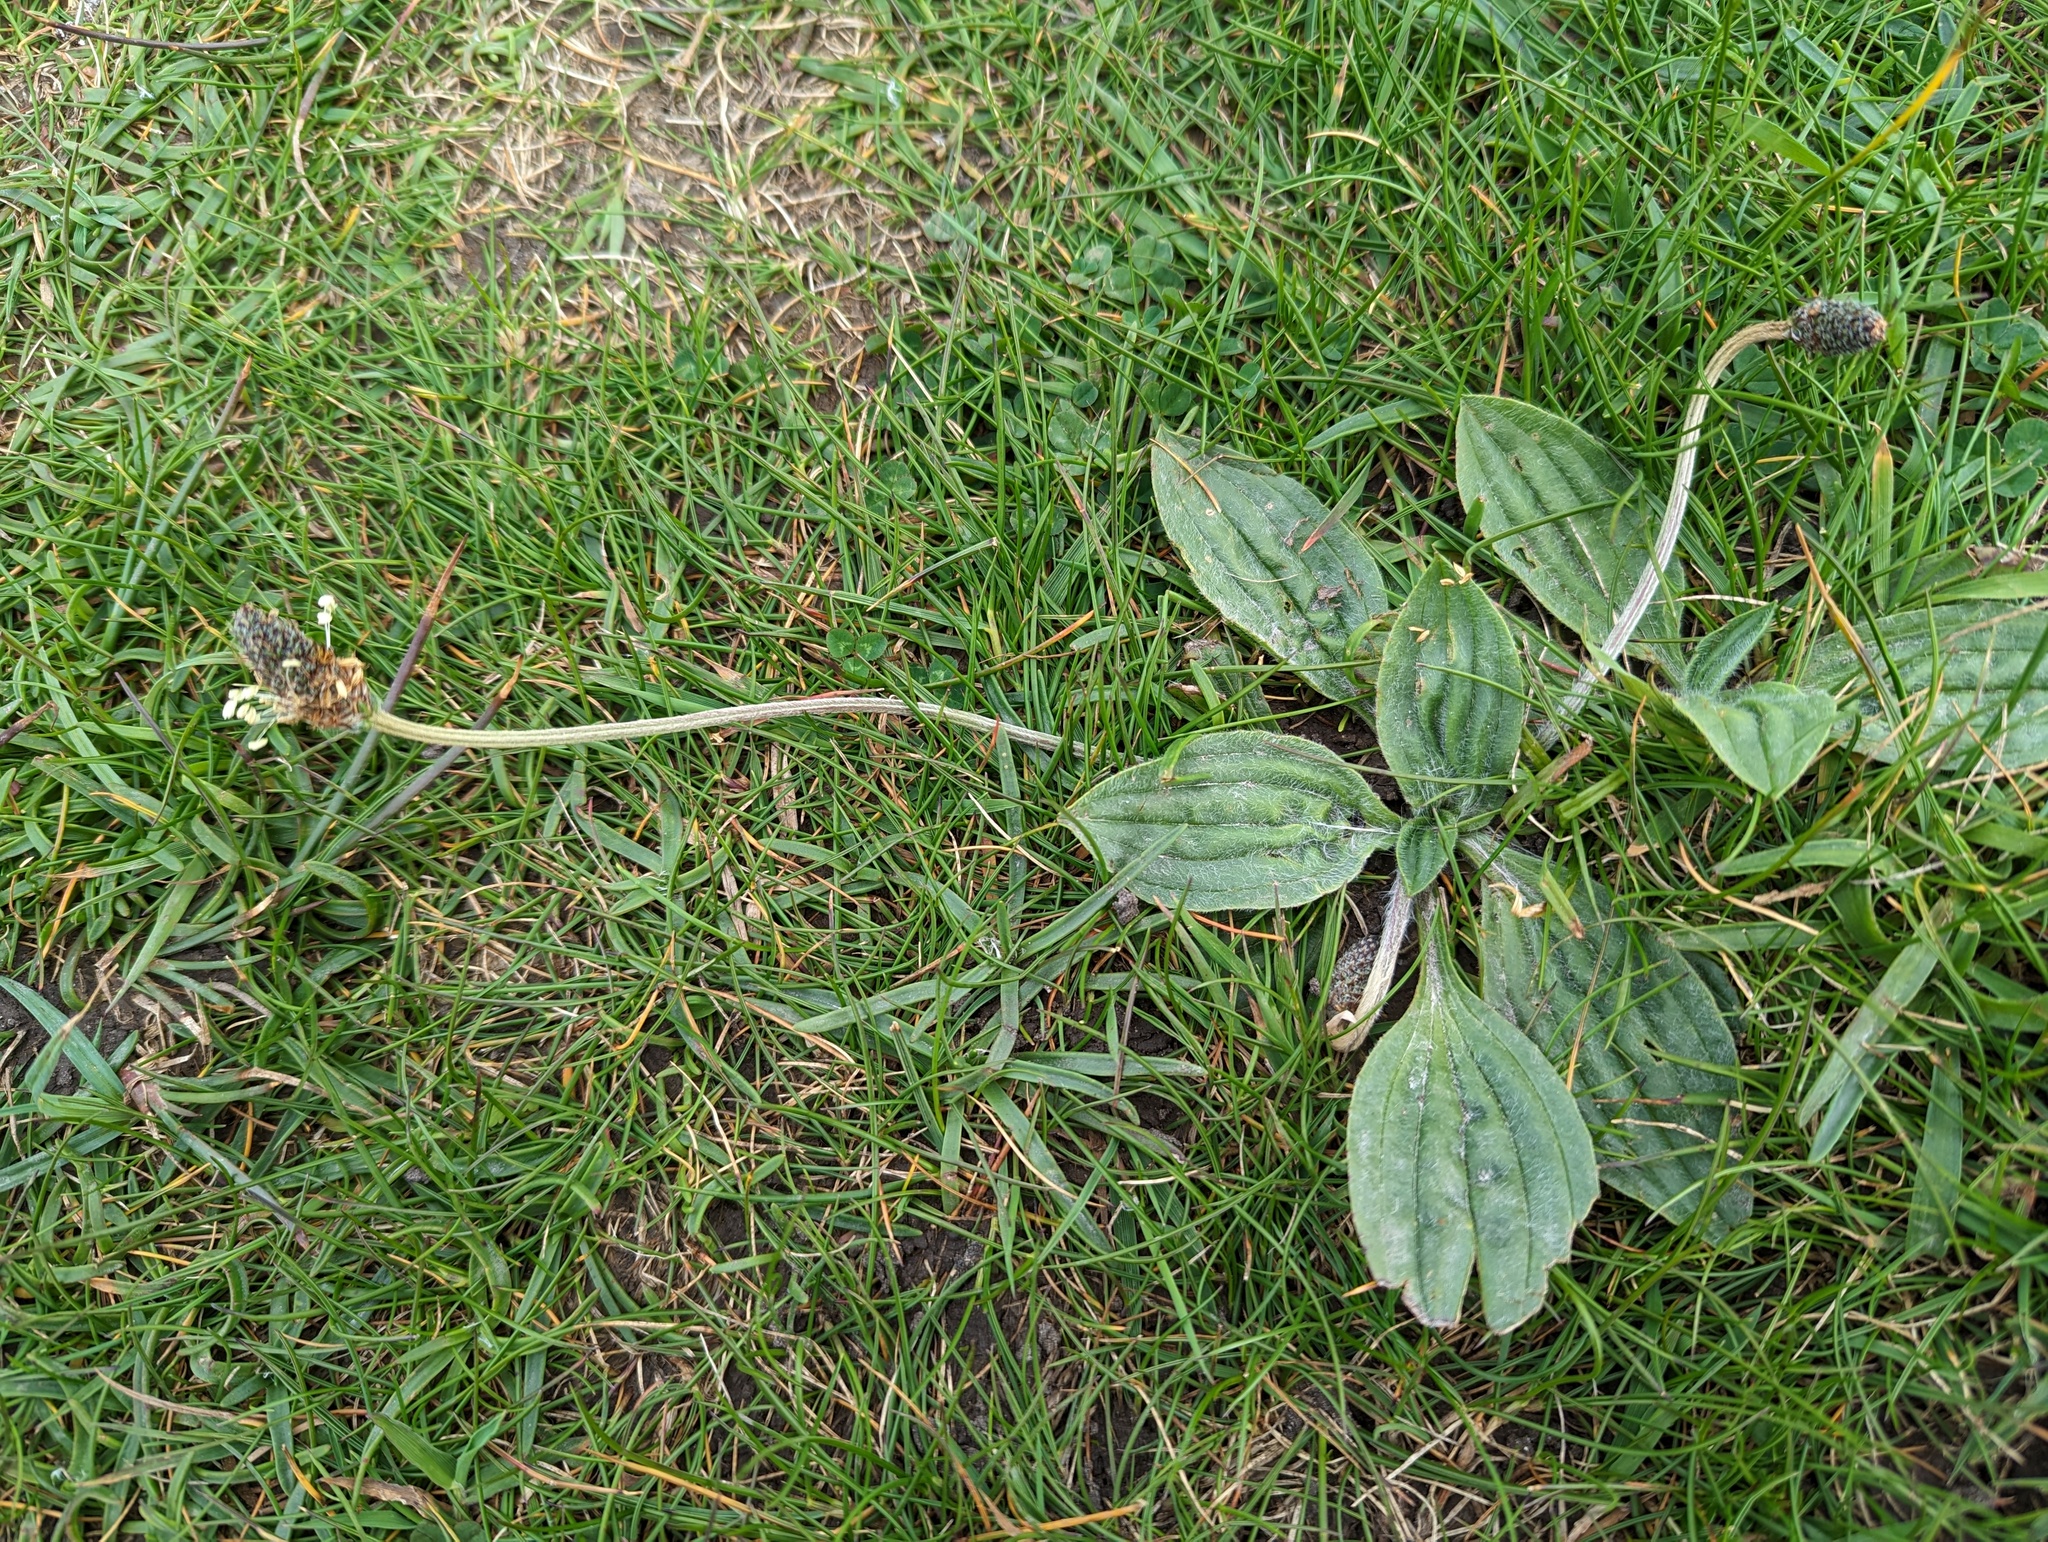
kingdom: Plantae
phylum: Tracheophyta
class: Magnoliopsida
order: Lamiales
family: Plantaginaceae
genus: Plantago
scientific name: Plantago lanceolata
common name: Ribwort plantain
